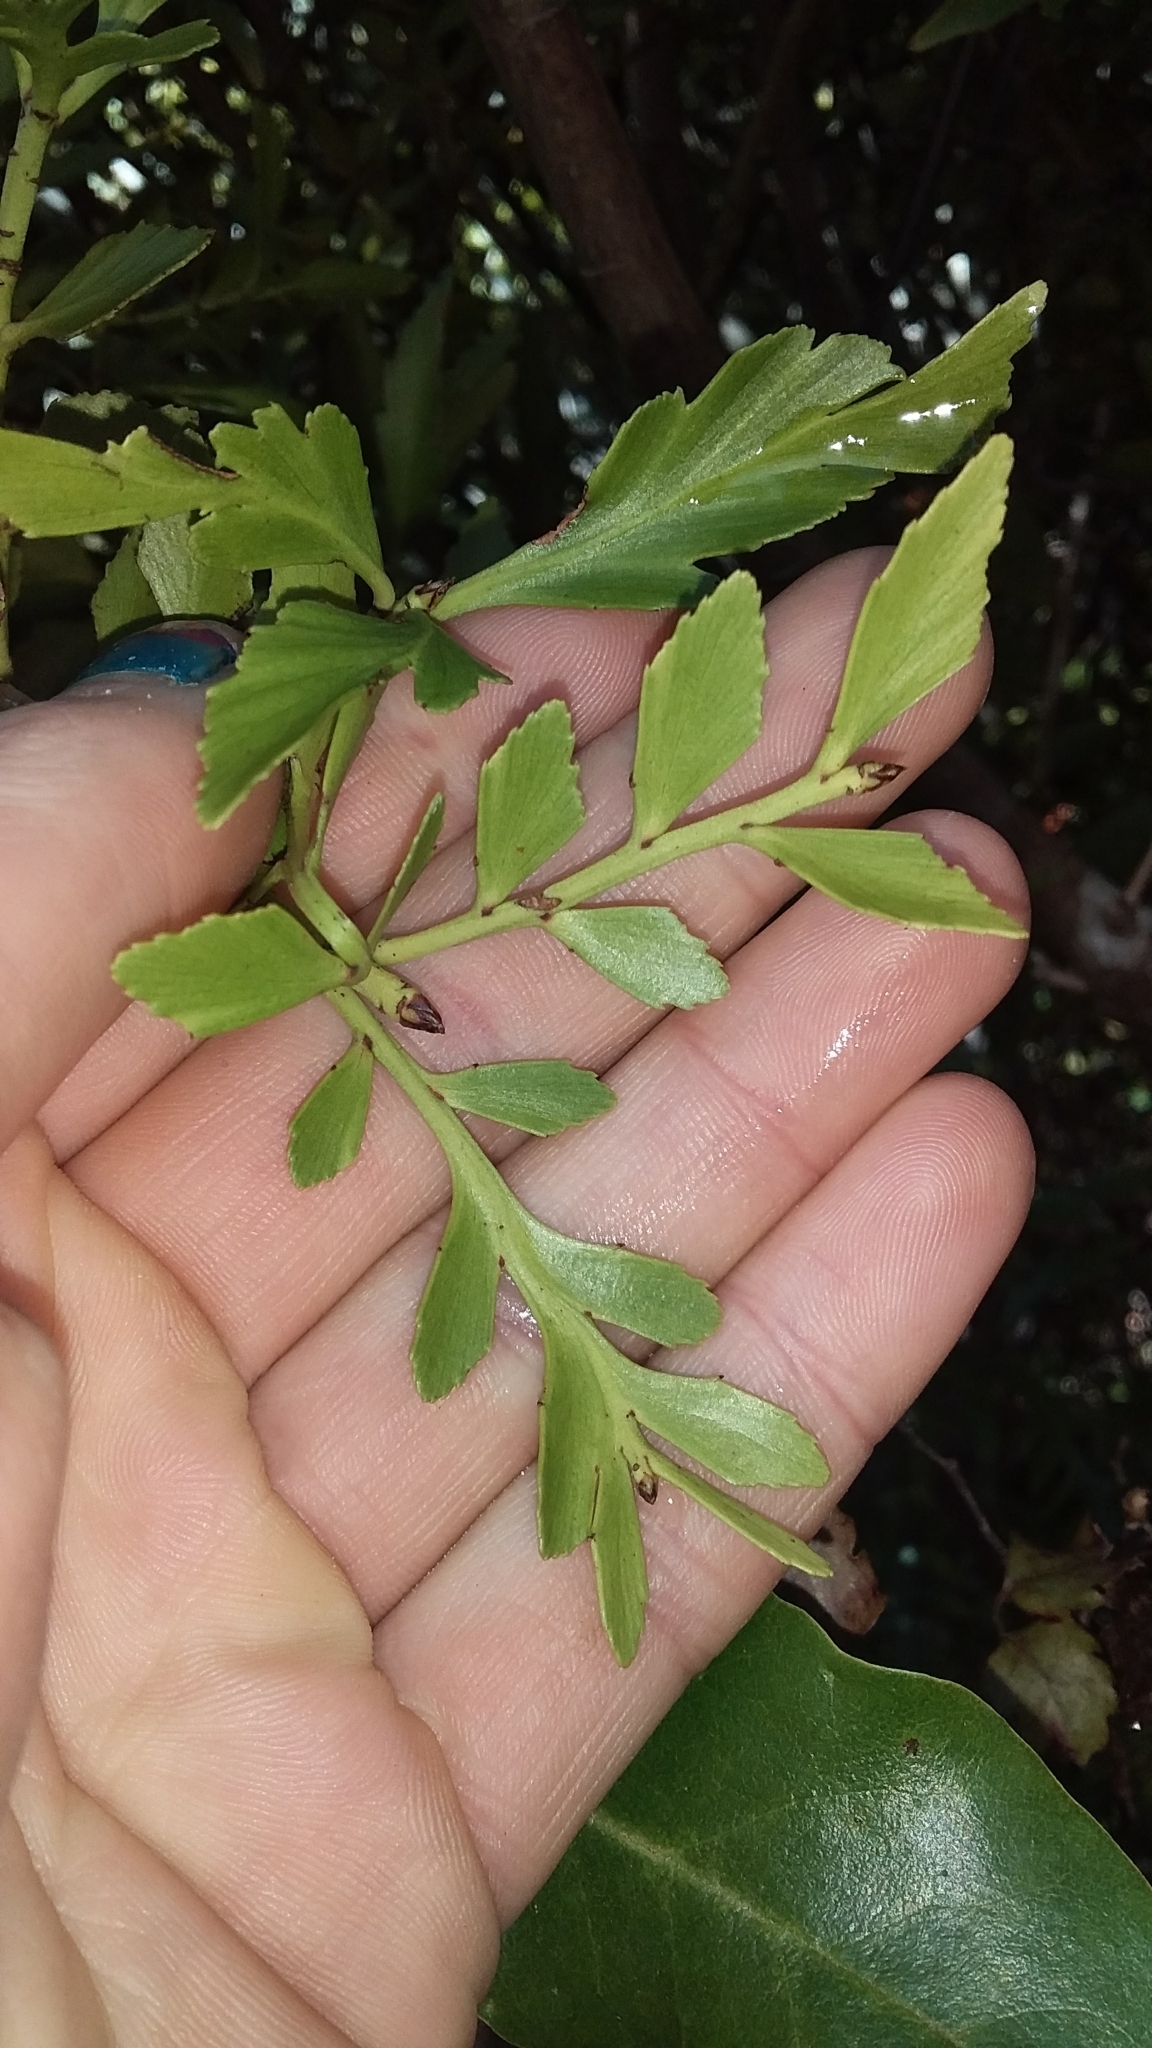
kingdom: Plantae
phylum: Tracheophyta
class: Pinopsida
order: Pinales
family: Phyllocladaceae
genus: Phyllocladus
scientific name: Phyllocladus trichomanoides
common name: Celery pine
